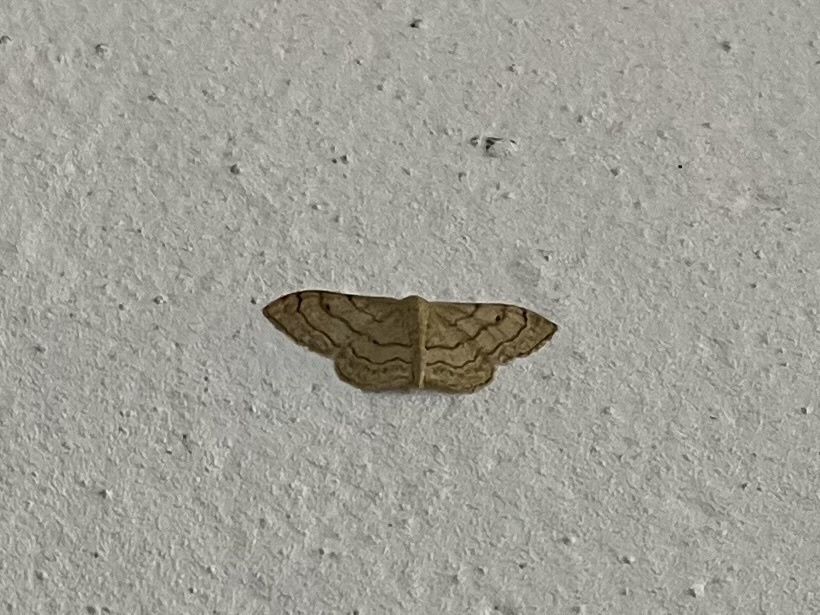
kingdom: Animalia
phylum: Arthropoda
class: Insecta
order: Lepidoptera
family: Geometridae
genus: Idaea
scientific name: Idaea aversata
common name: Riband wave
